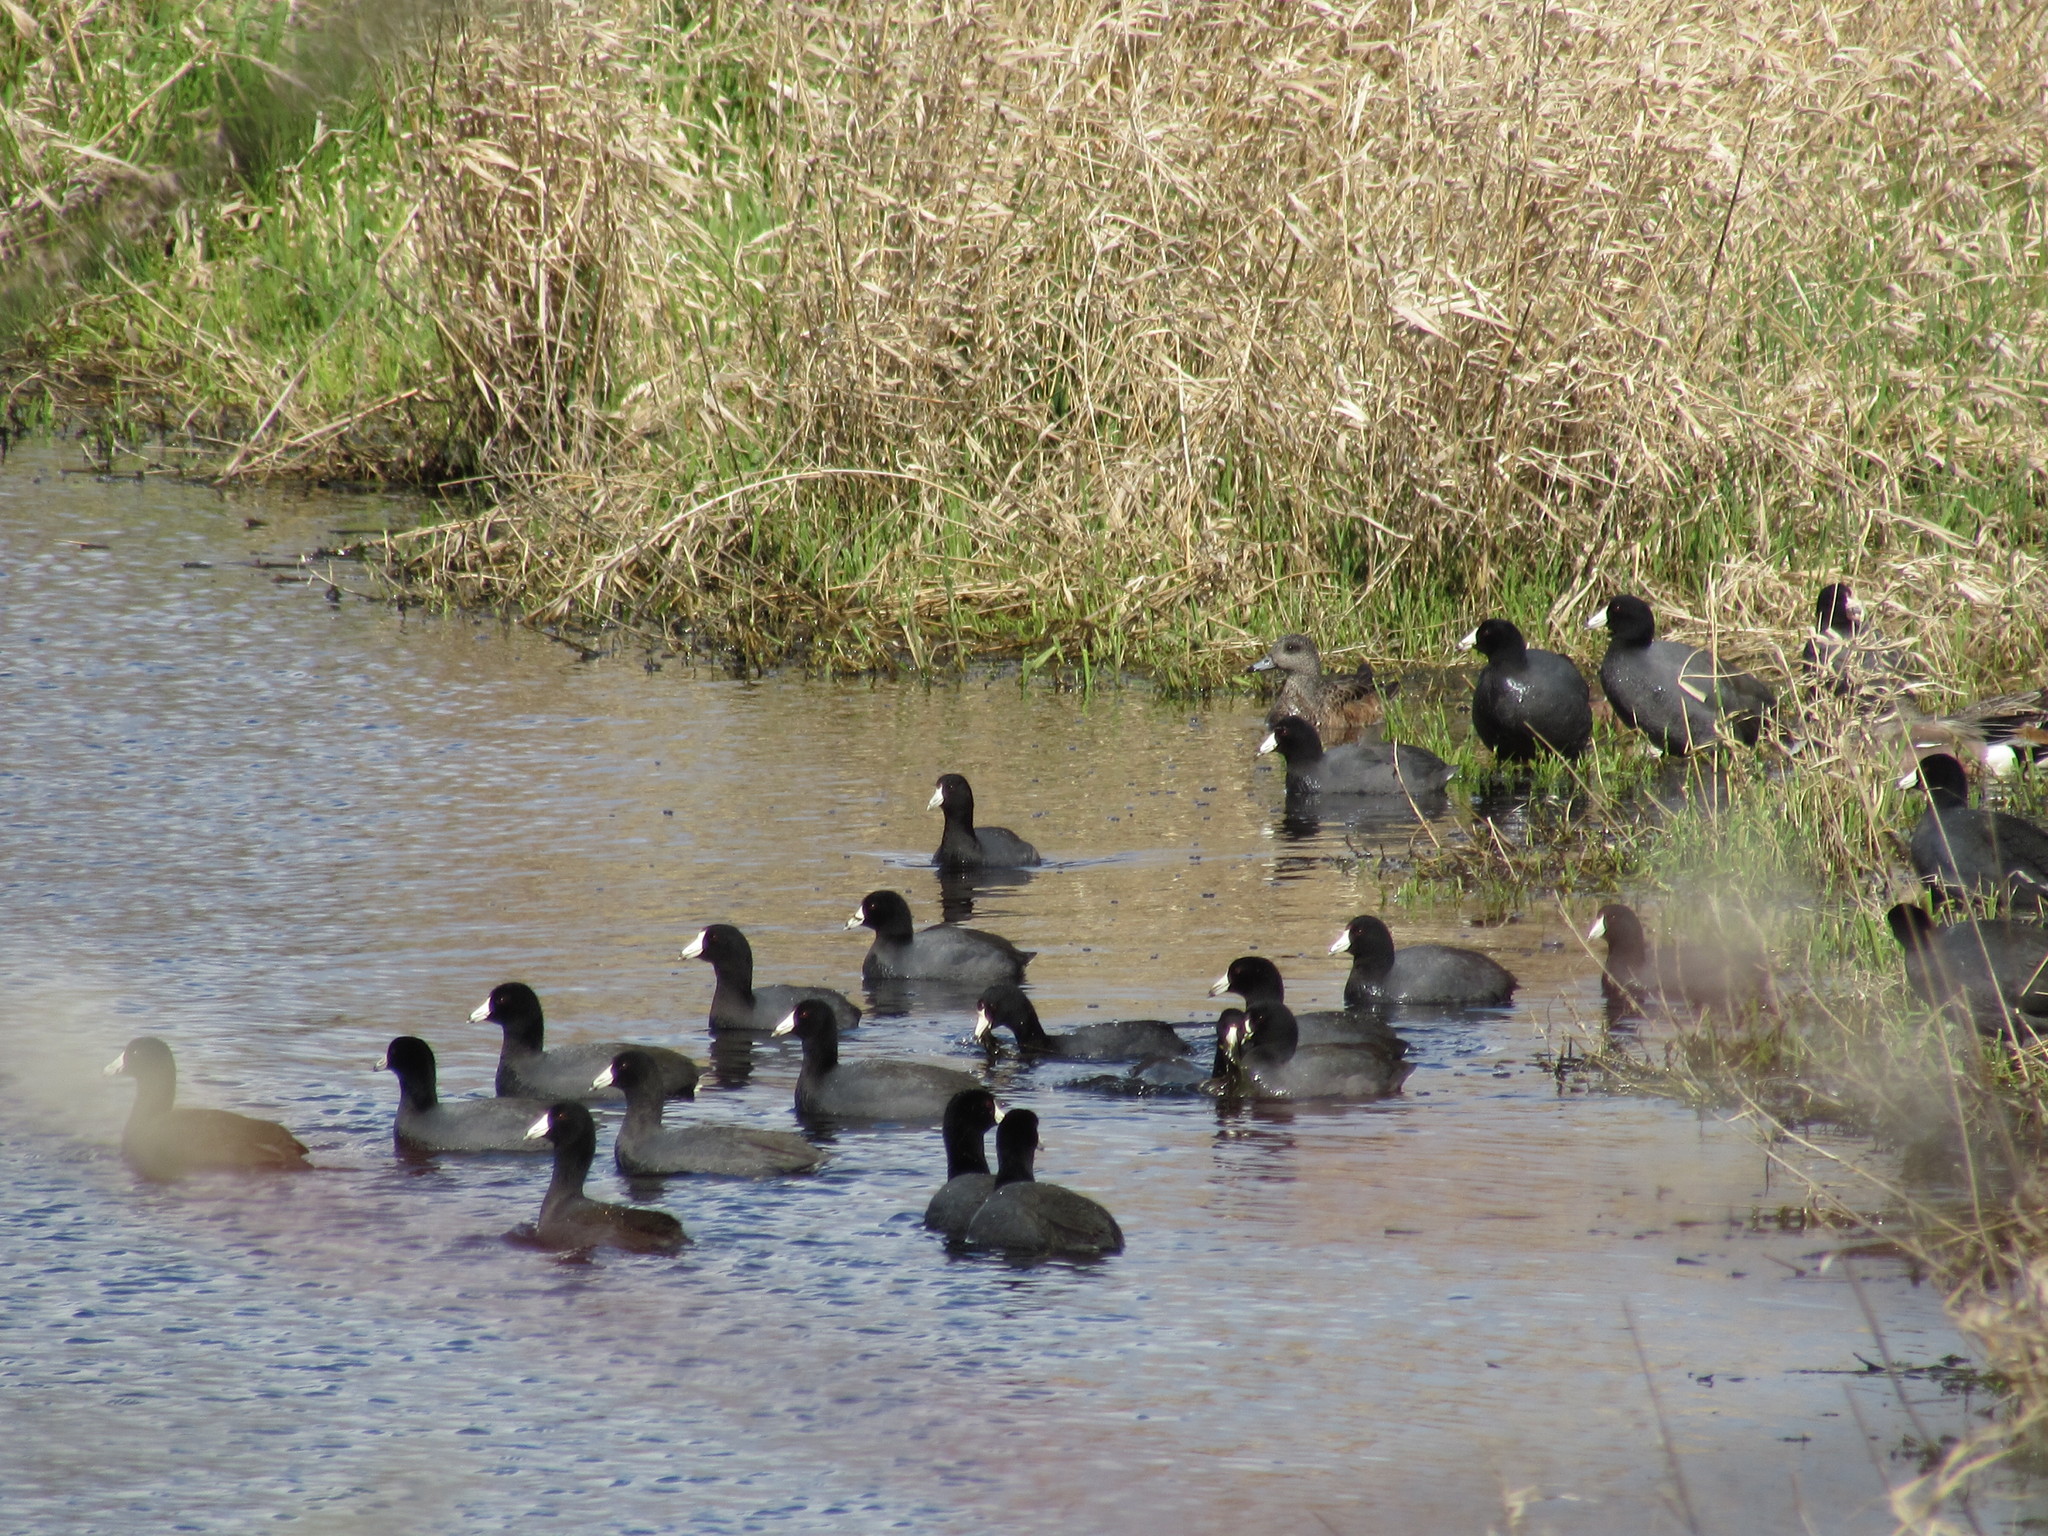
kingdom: Animalia
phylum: Chordata
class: Aves
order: Gruiformes
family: Rallidae
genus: Fulica
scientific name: Fulica americana
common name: American coot
